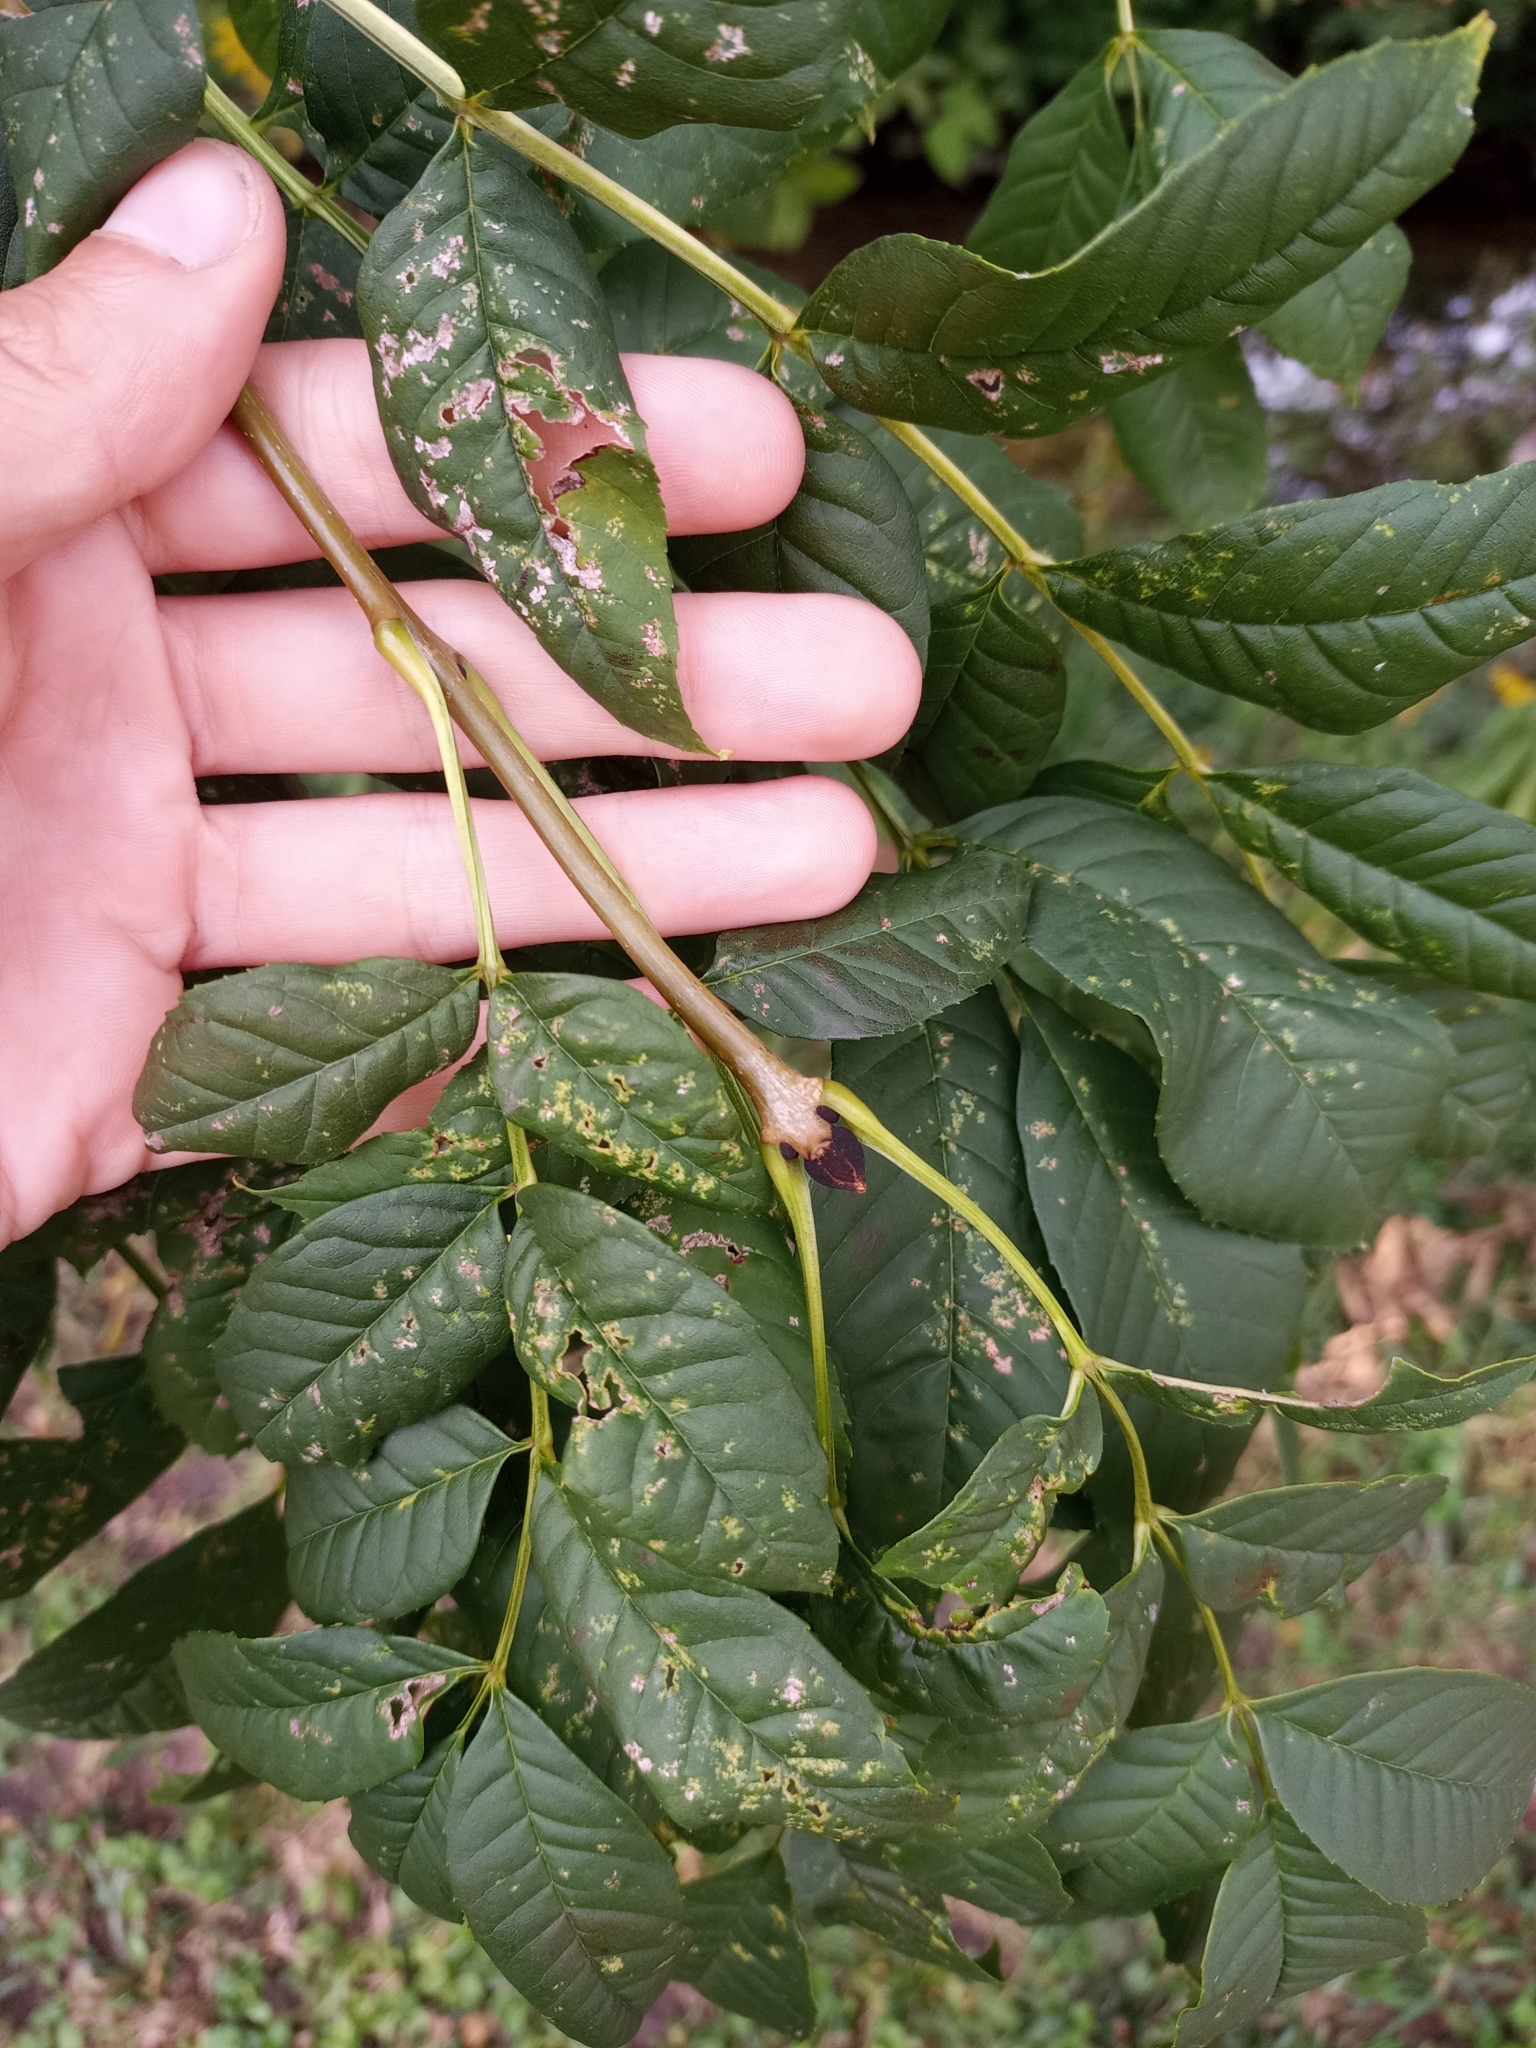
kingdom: Plantae
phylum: Tracheophyta
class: Magnoliopsida
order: Lamiales
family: Oleaceae
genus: Fraxinus
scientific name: Fraxinus excelsior
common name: European ash
